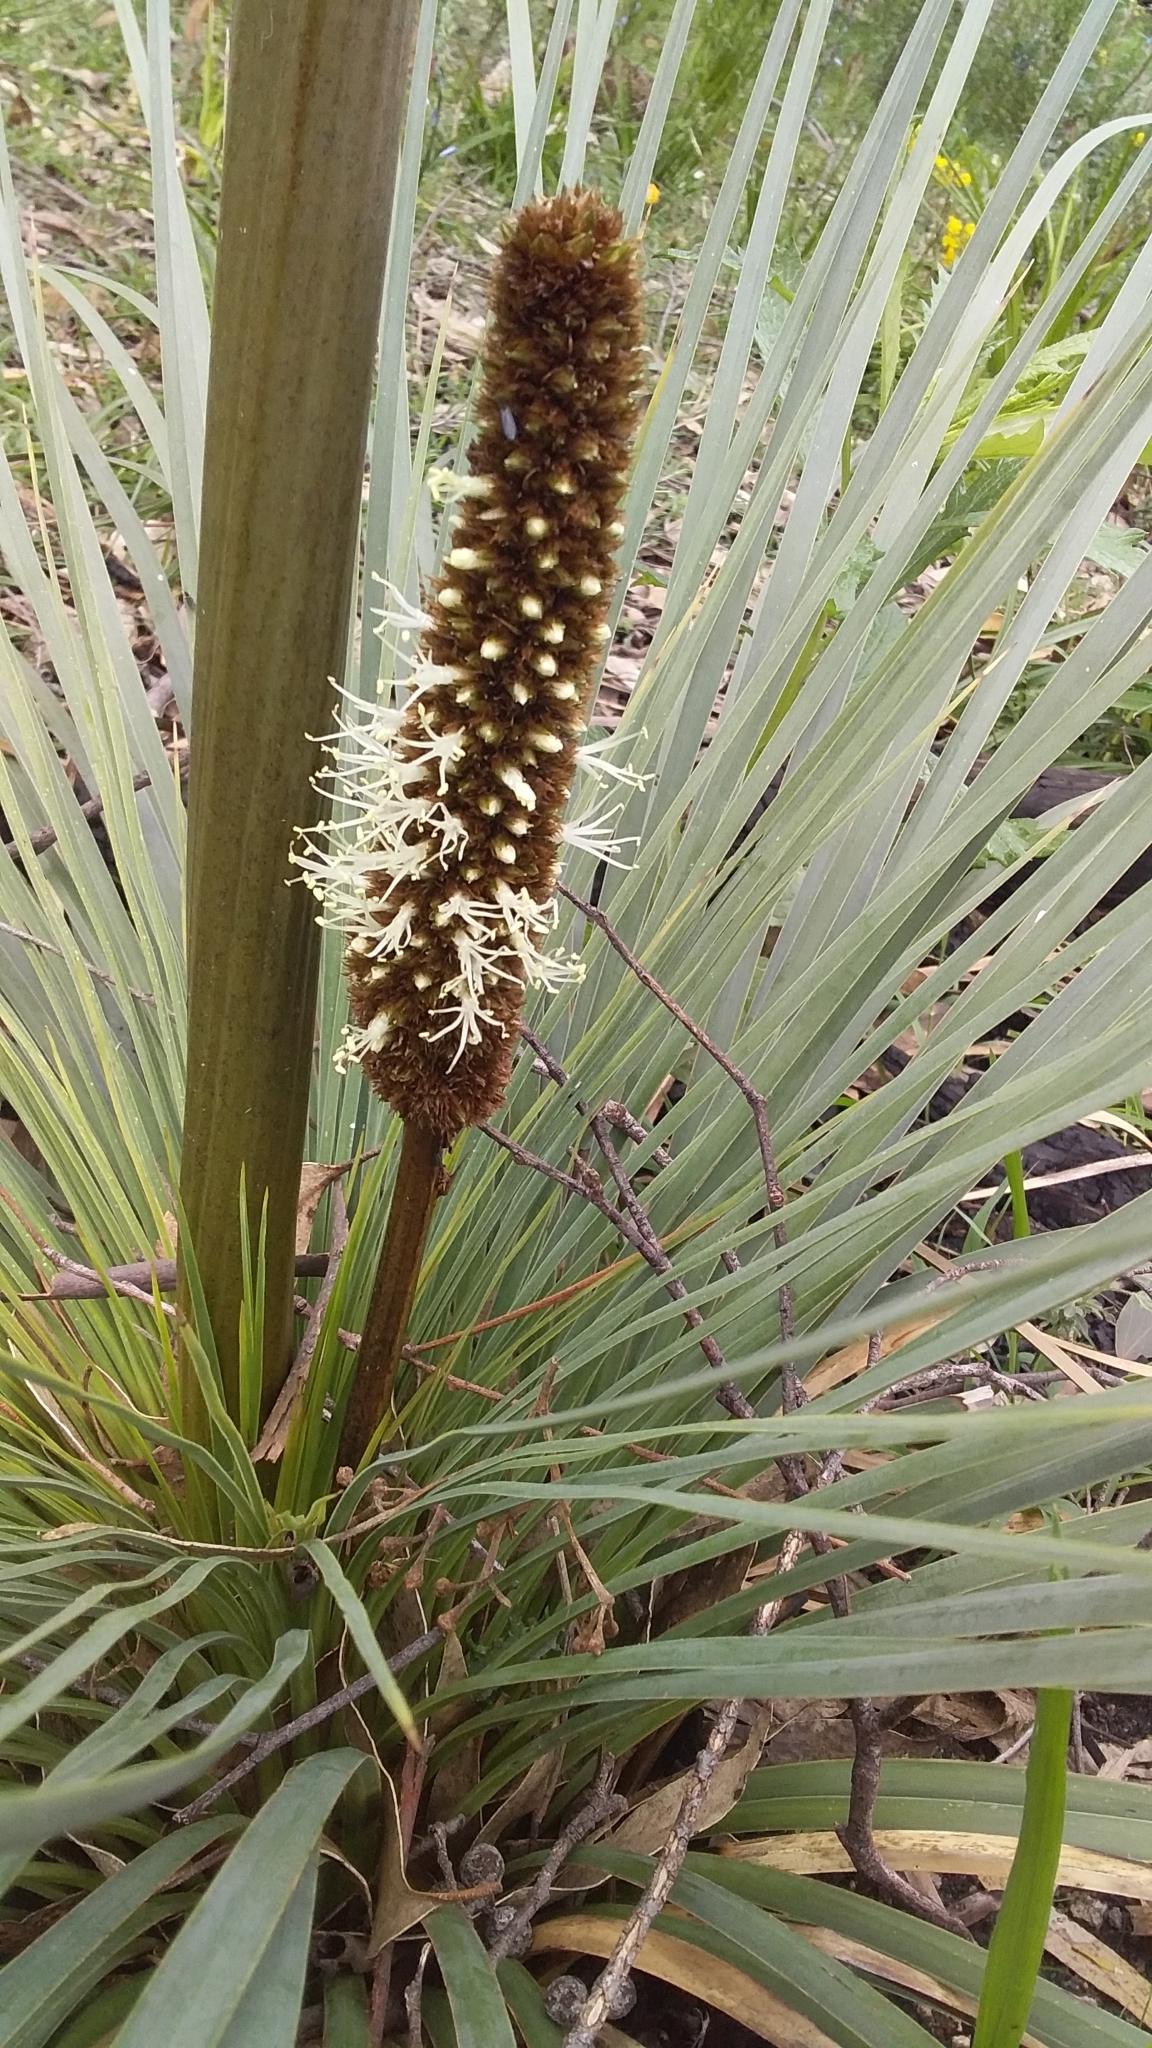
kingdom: Plantae
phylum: Tracheophyta
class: Liliopsida
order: Asparagales
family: Asphodelaceae
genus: Xanthorrhoea
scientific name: Xanthorrhoea semiplana
